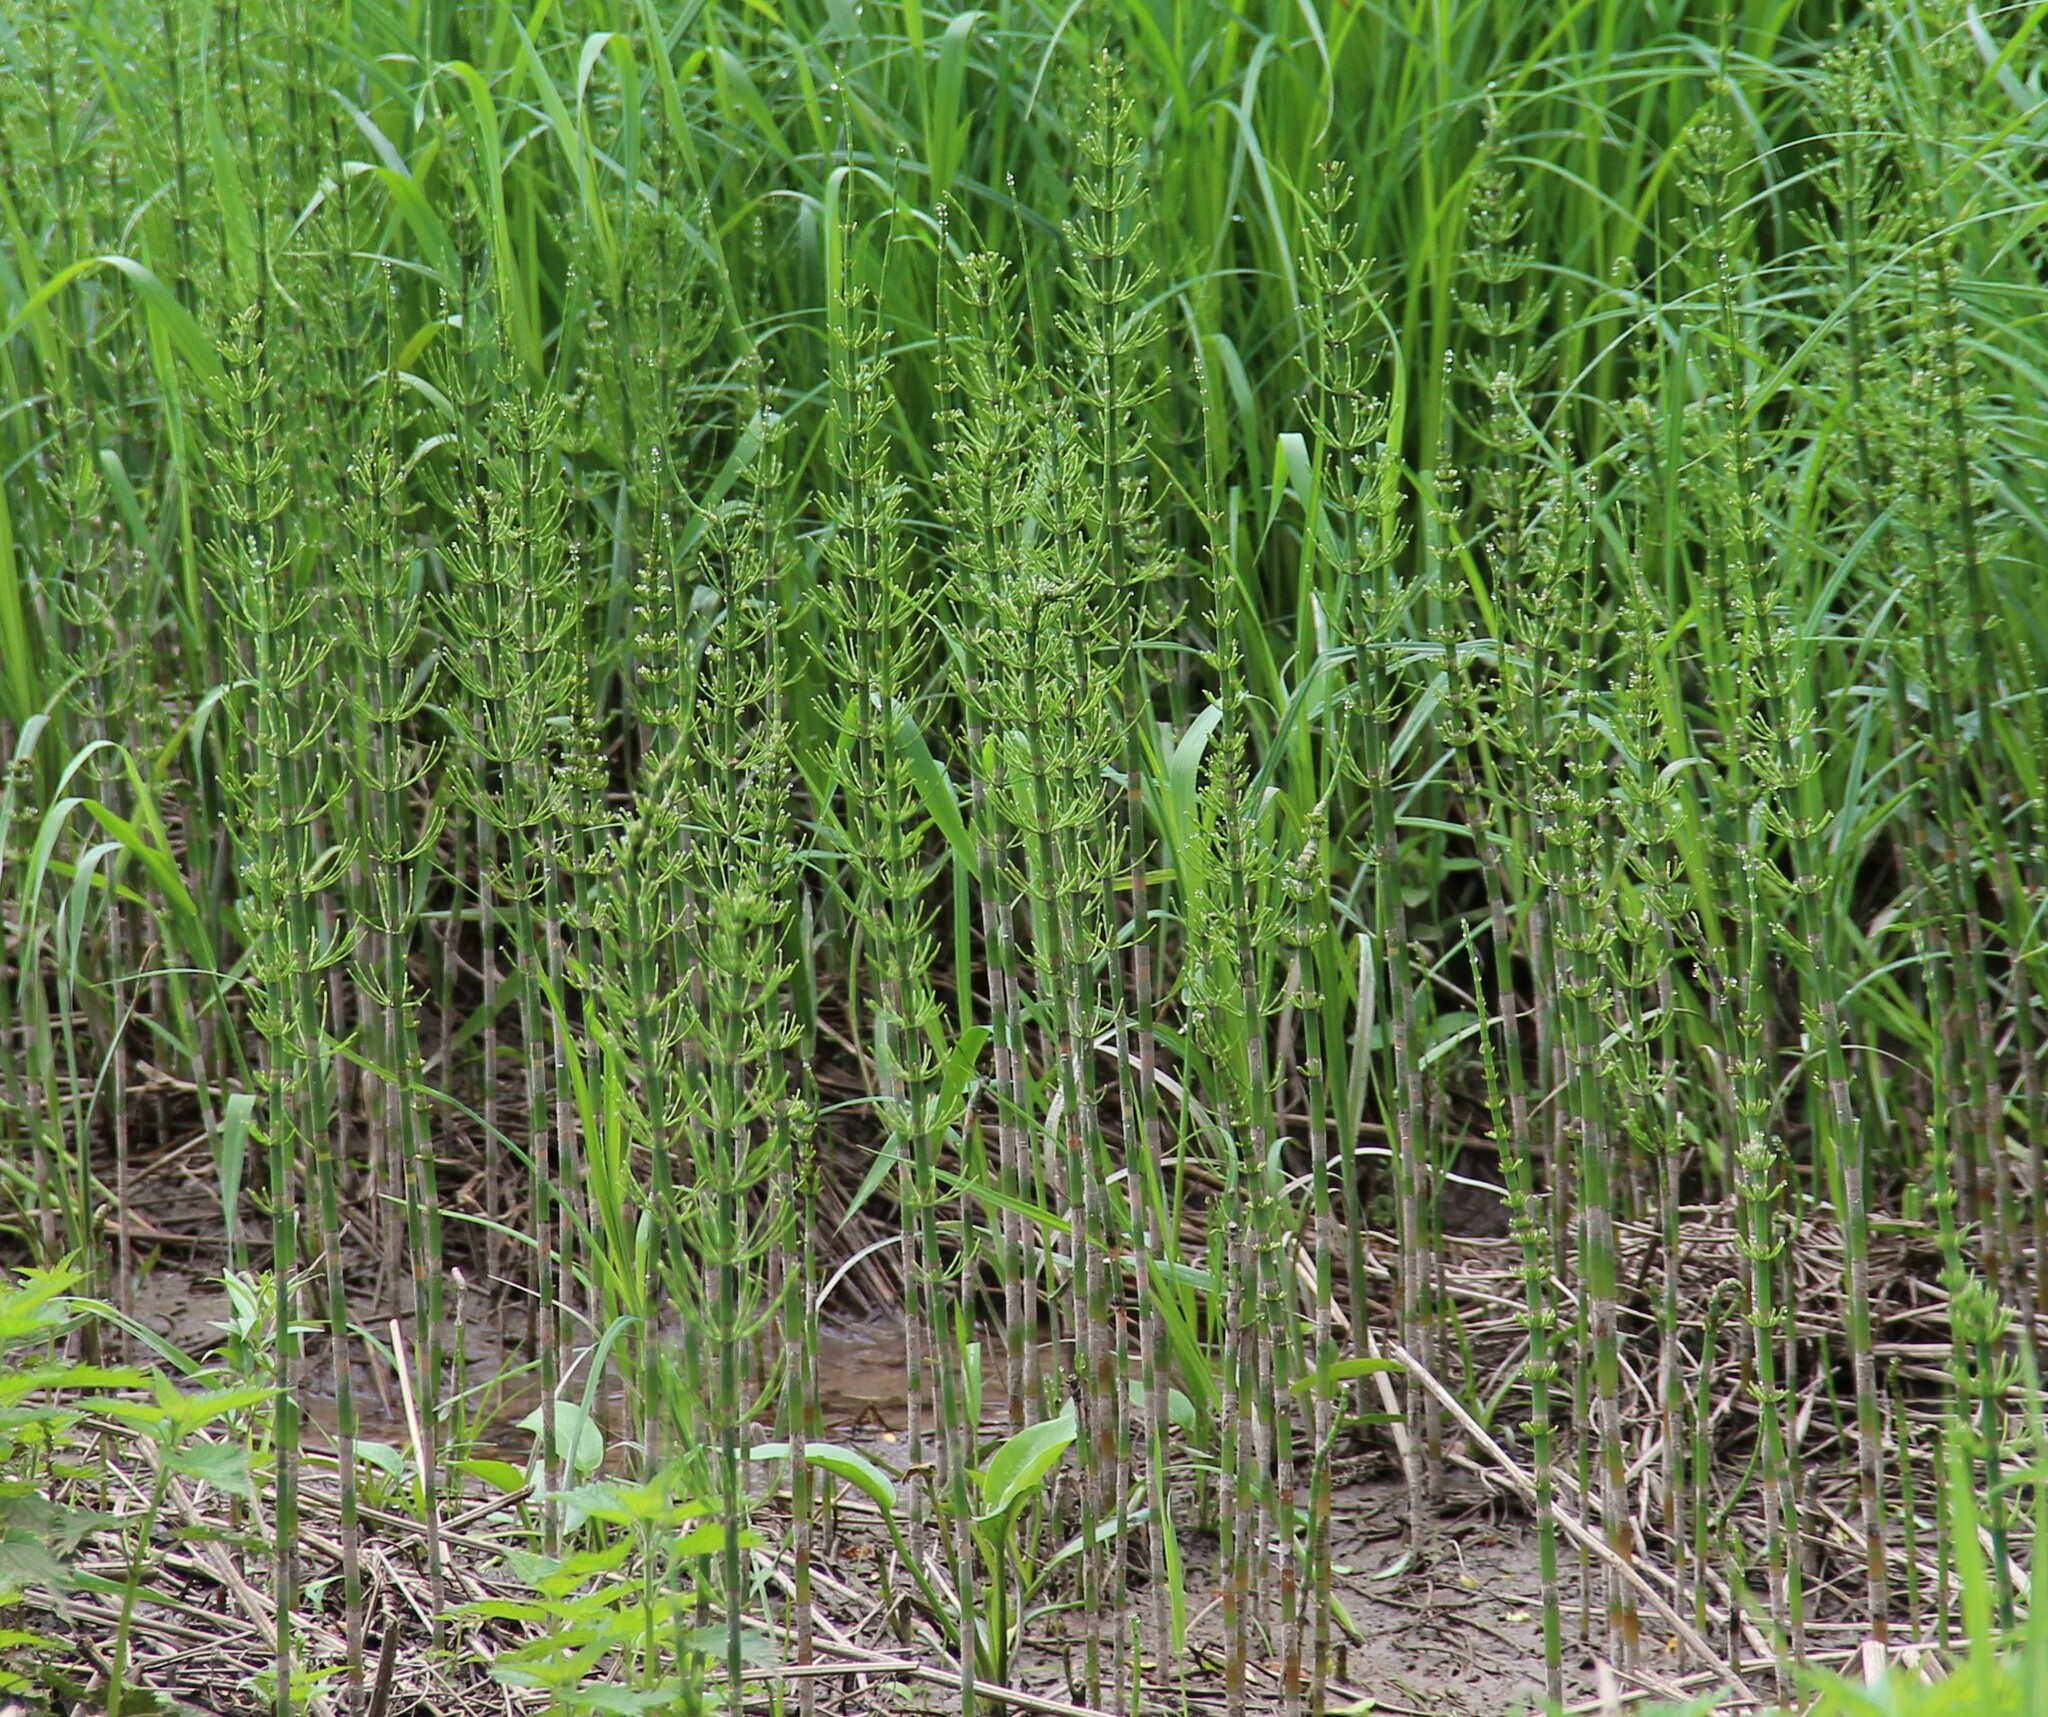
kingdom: Plantae
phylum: Tracheophyta
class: Polypodiopsida
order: Equisetales
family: Equisetaceae
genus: Equisetum
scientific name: Equisetum fluviatile
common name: Water horsetail
